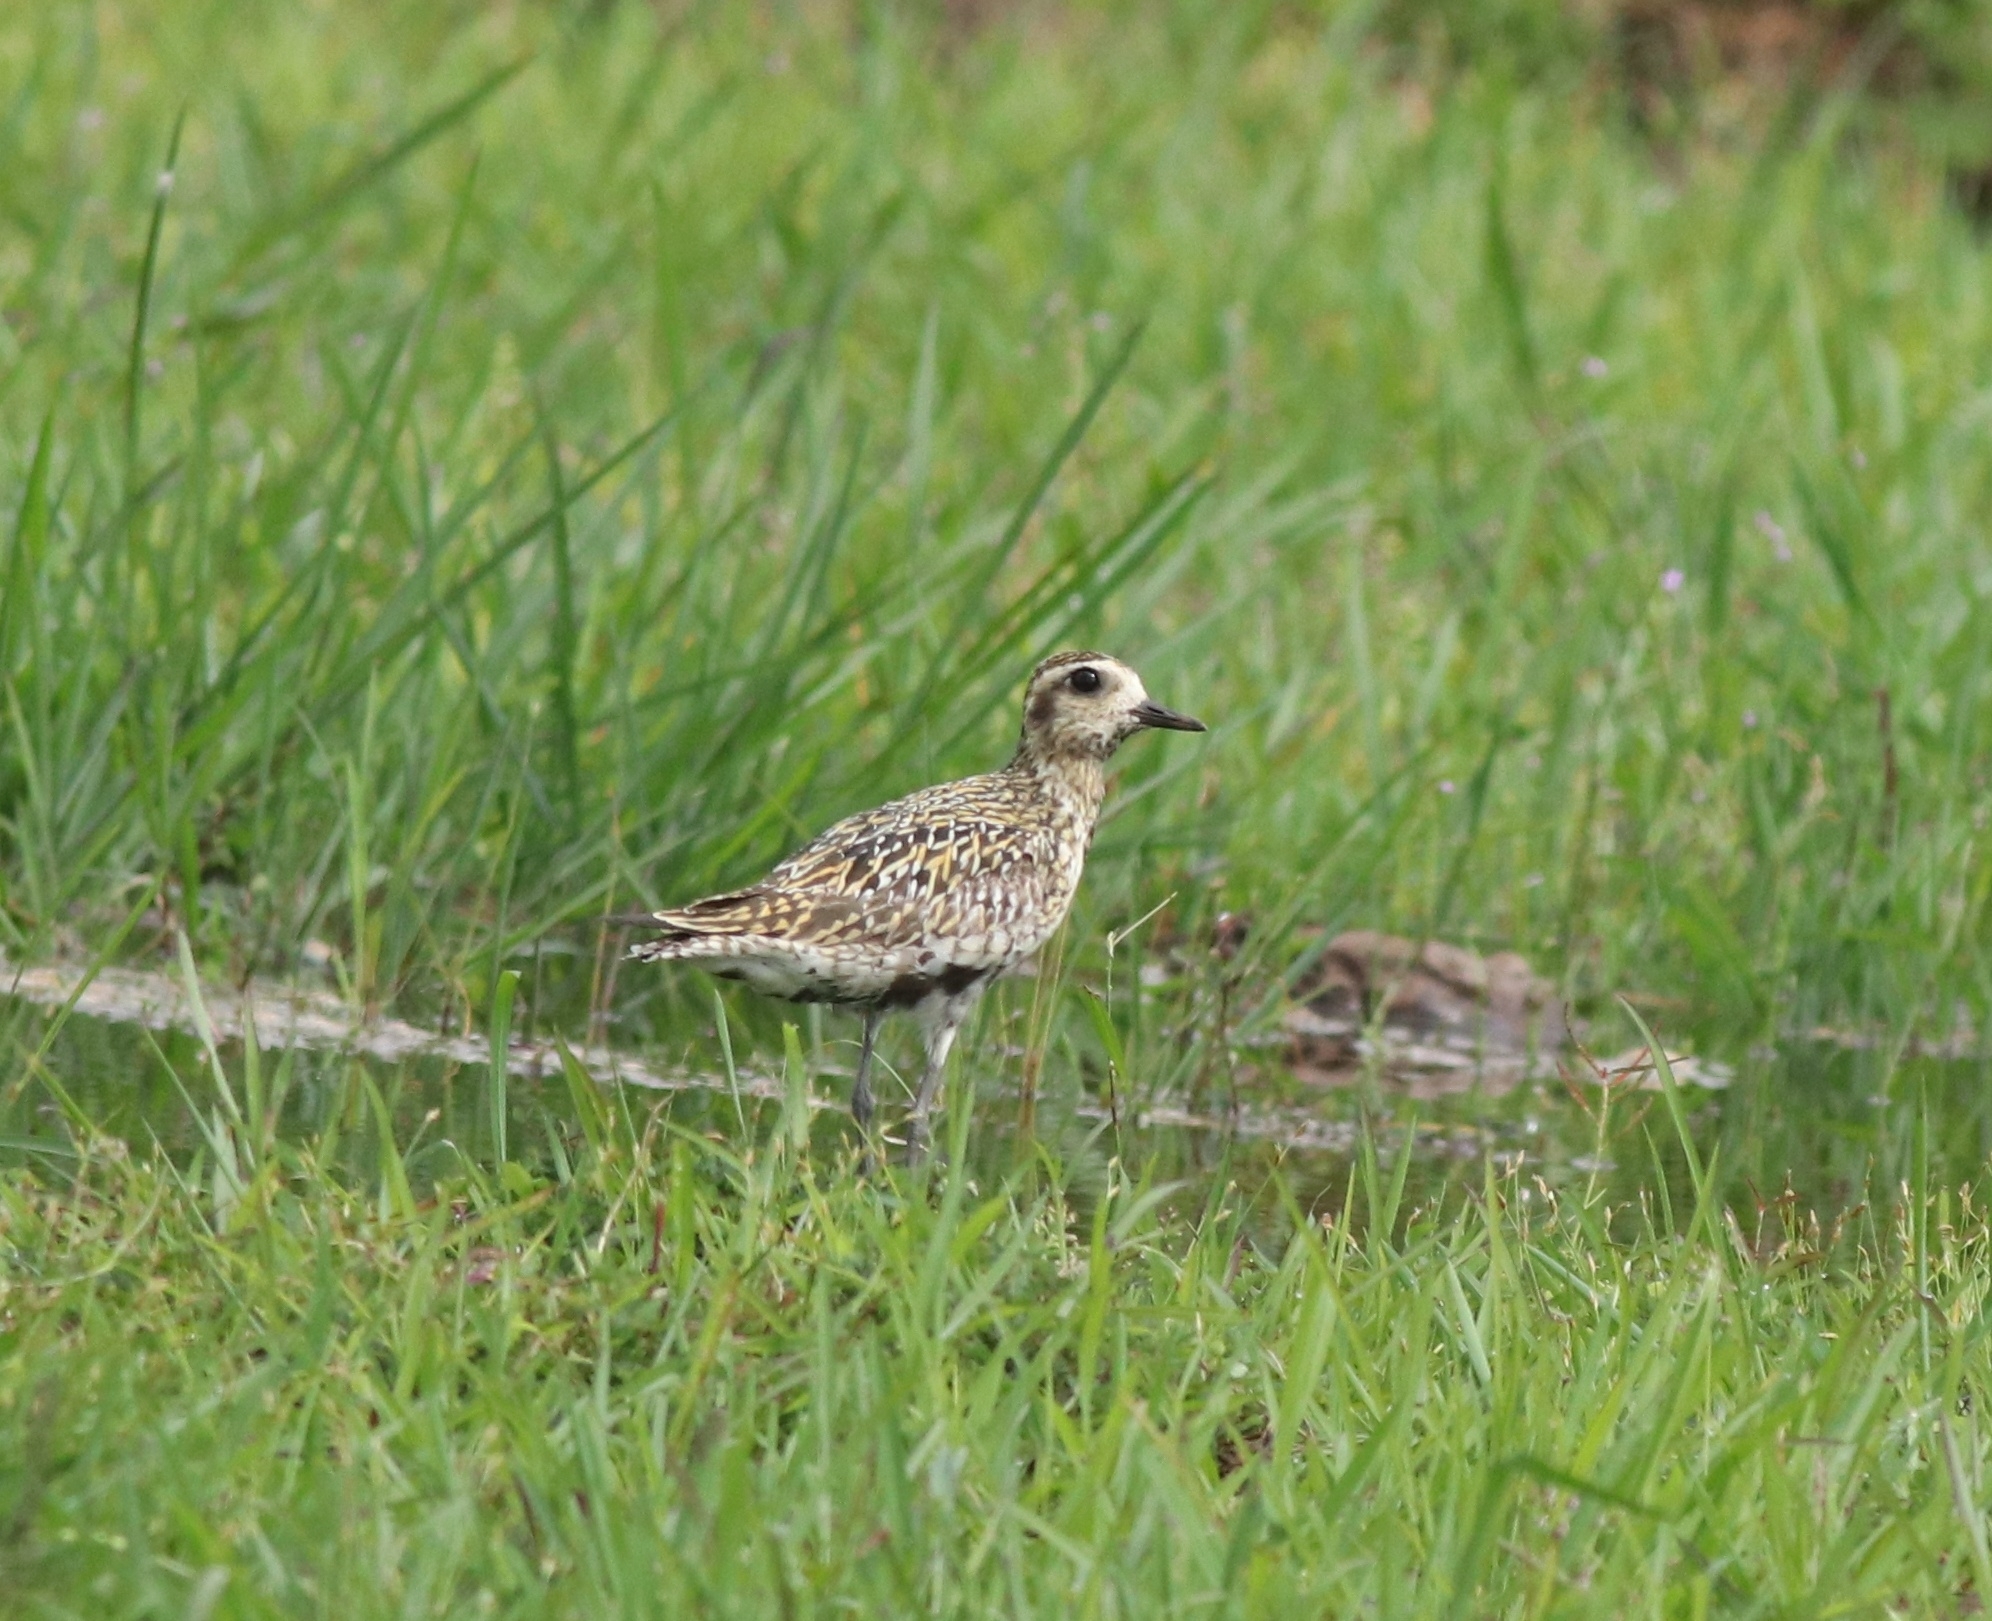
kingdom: Animalia
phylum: Chordata
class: Aves
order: Charadriiformes
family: Charadriidae
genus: Pluvialis
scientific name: Pluvialis fulva
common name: Pacific golden plover
